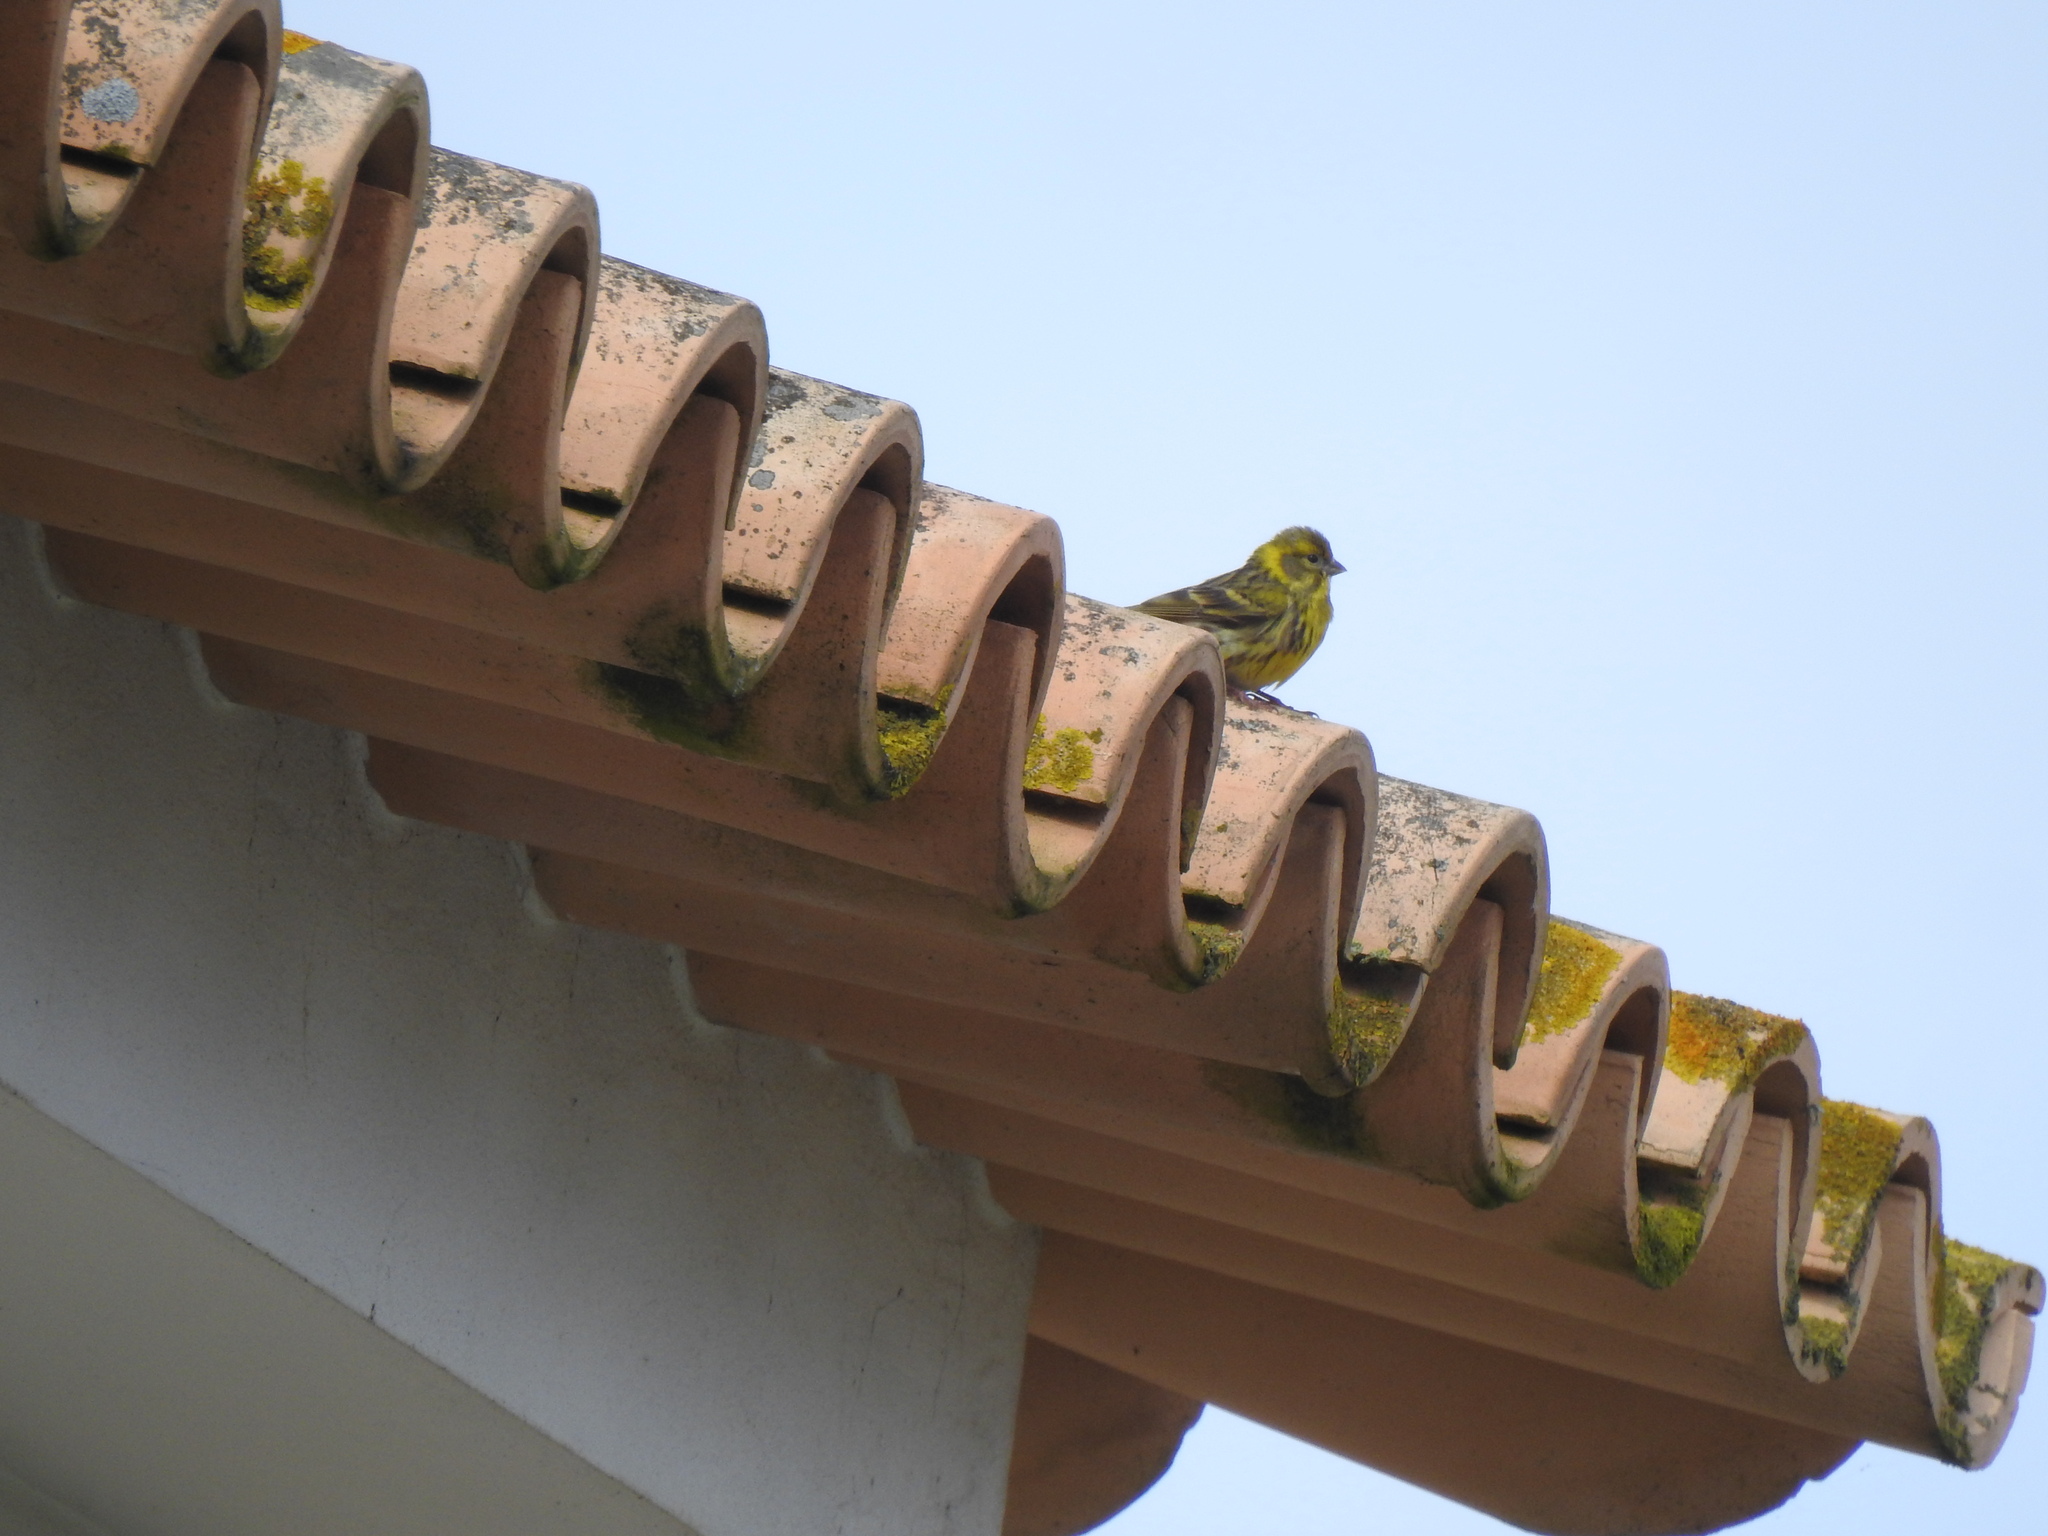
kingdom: Animalia
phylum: Chordata
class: Aves
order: Passeriformes
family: Fringillidae
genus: Serinus
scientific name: Serinus serinus
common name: European serin
